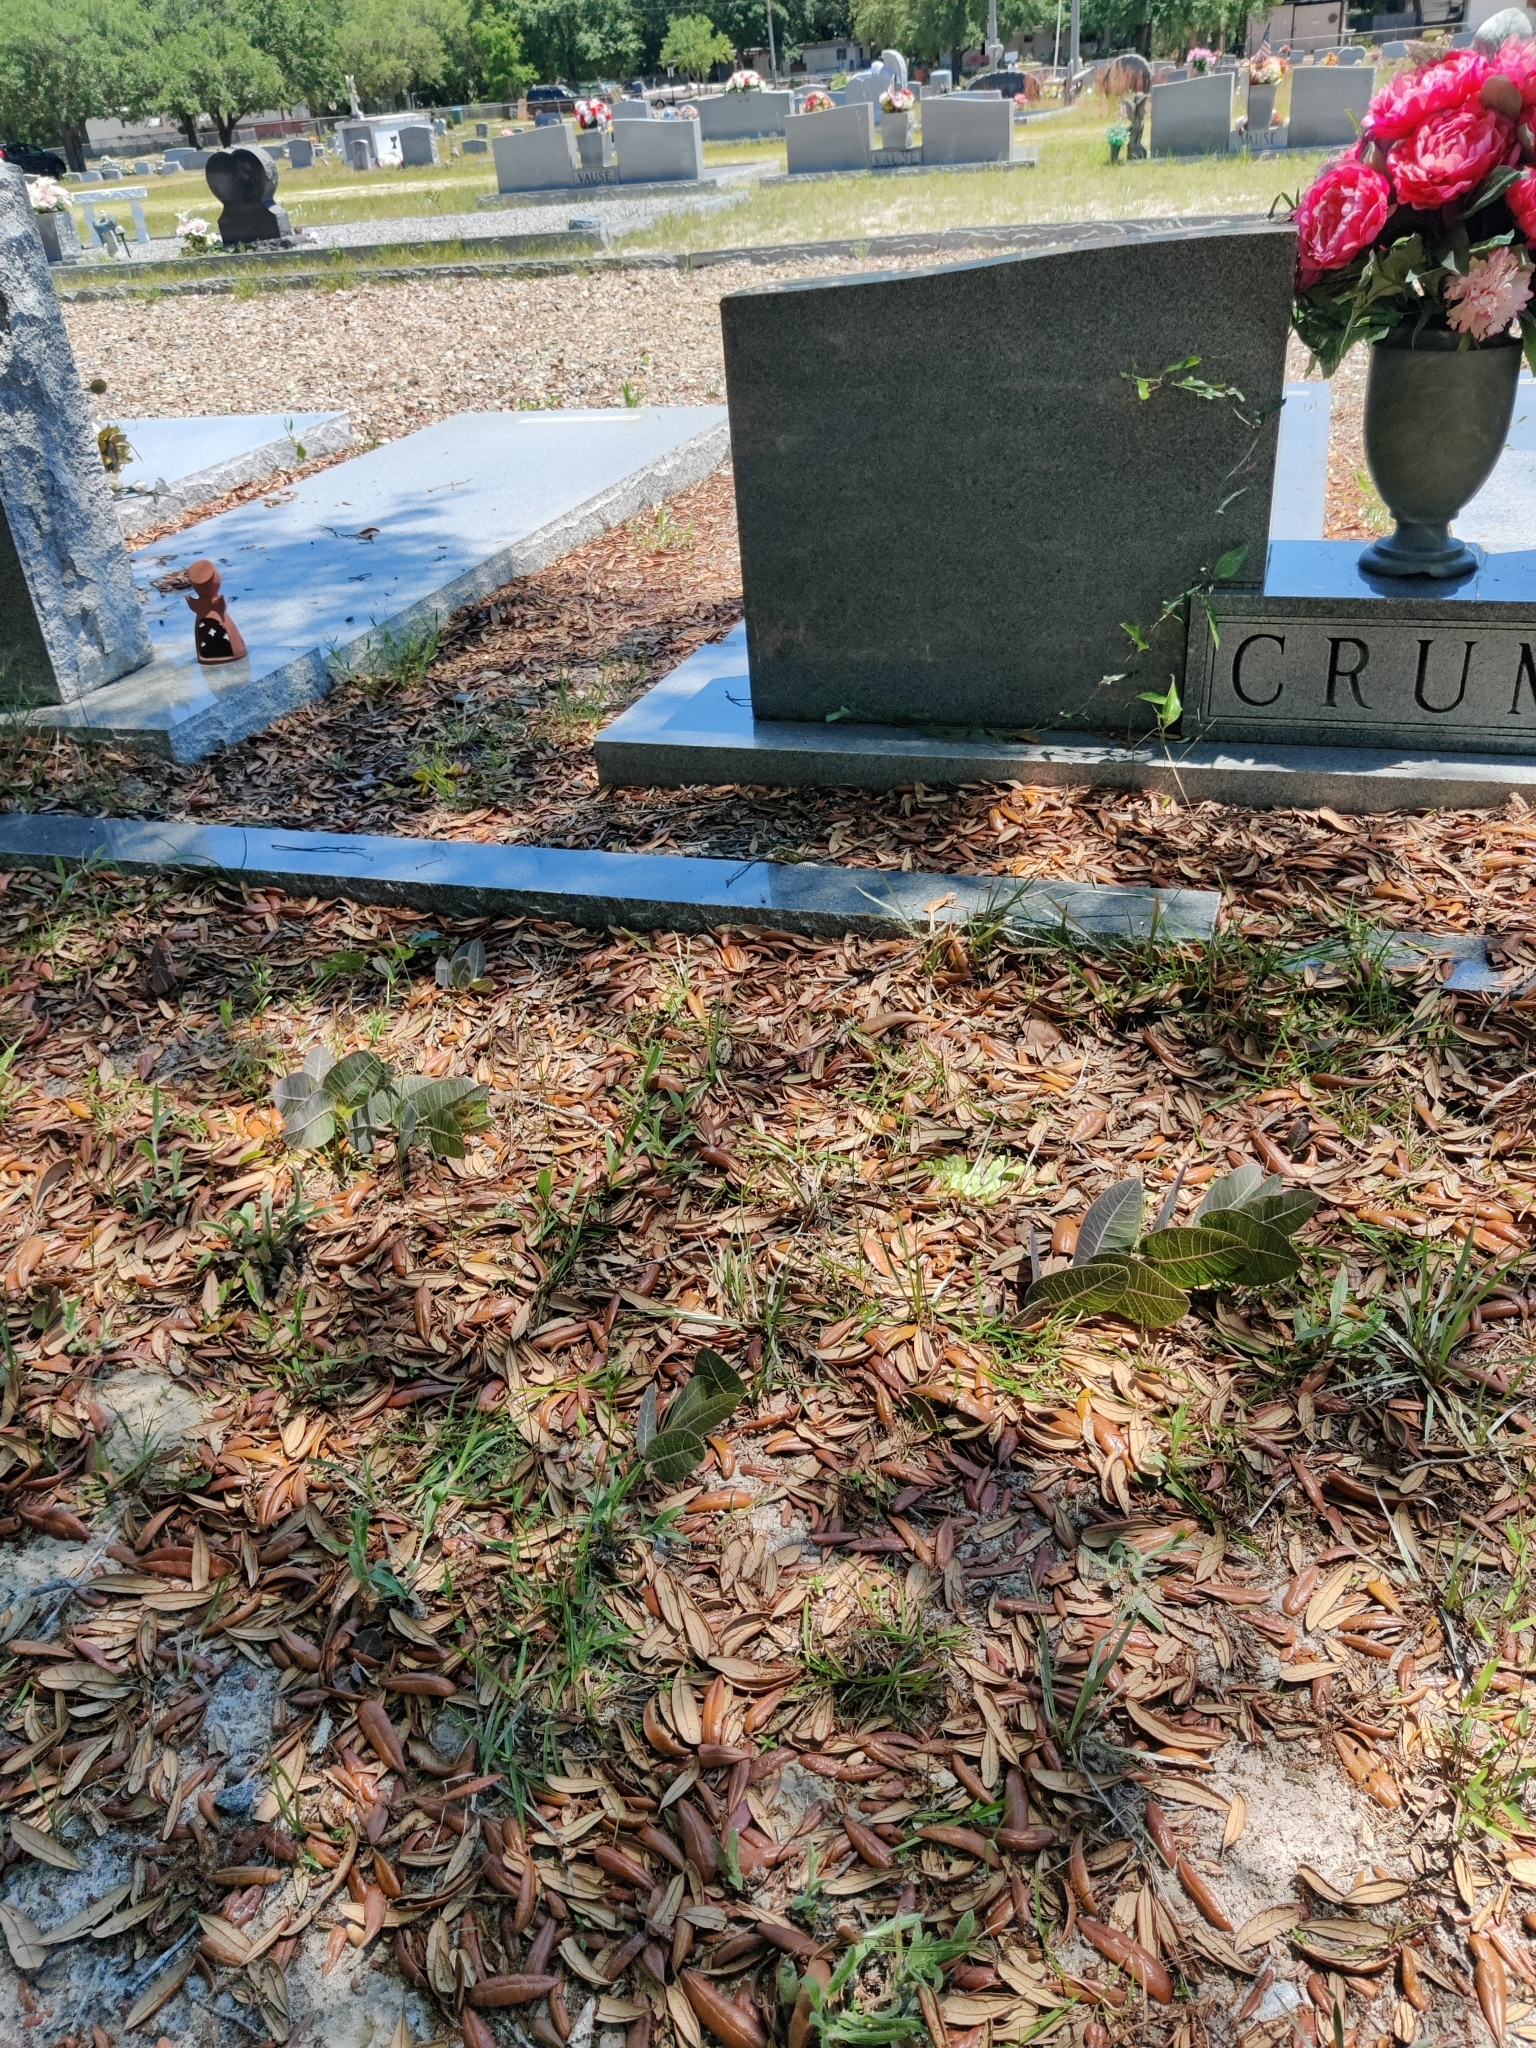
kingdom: Plantae
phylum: Tracheophyta
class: Magnoliopsida
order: Asterales
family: Asteraceae
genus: Pityopsis
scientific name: Pityopsis flexuosa
